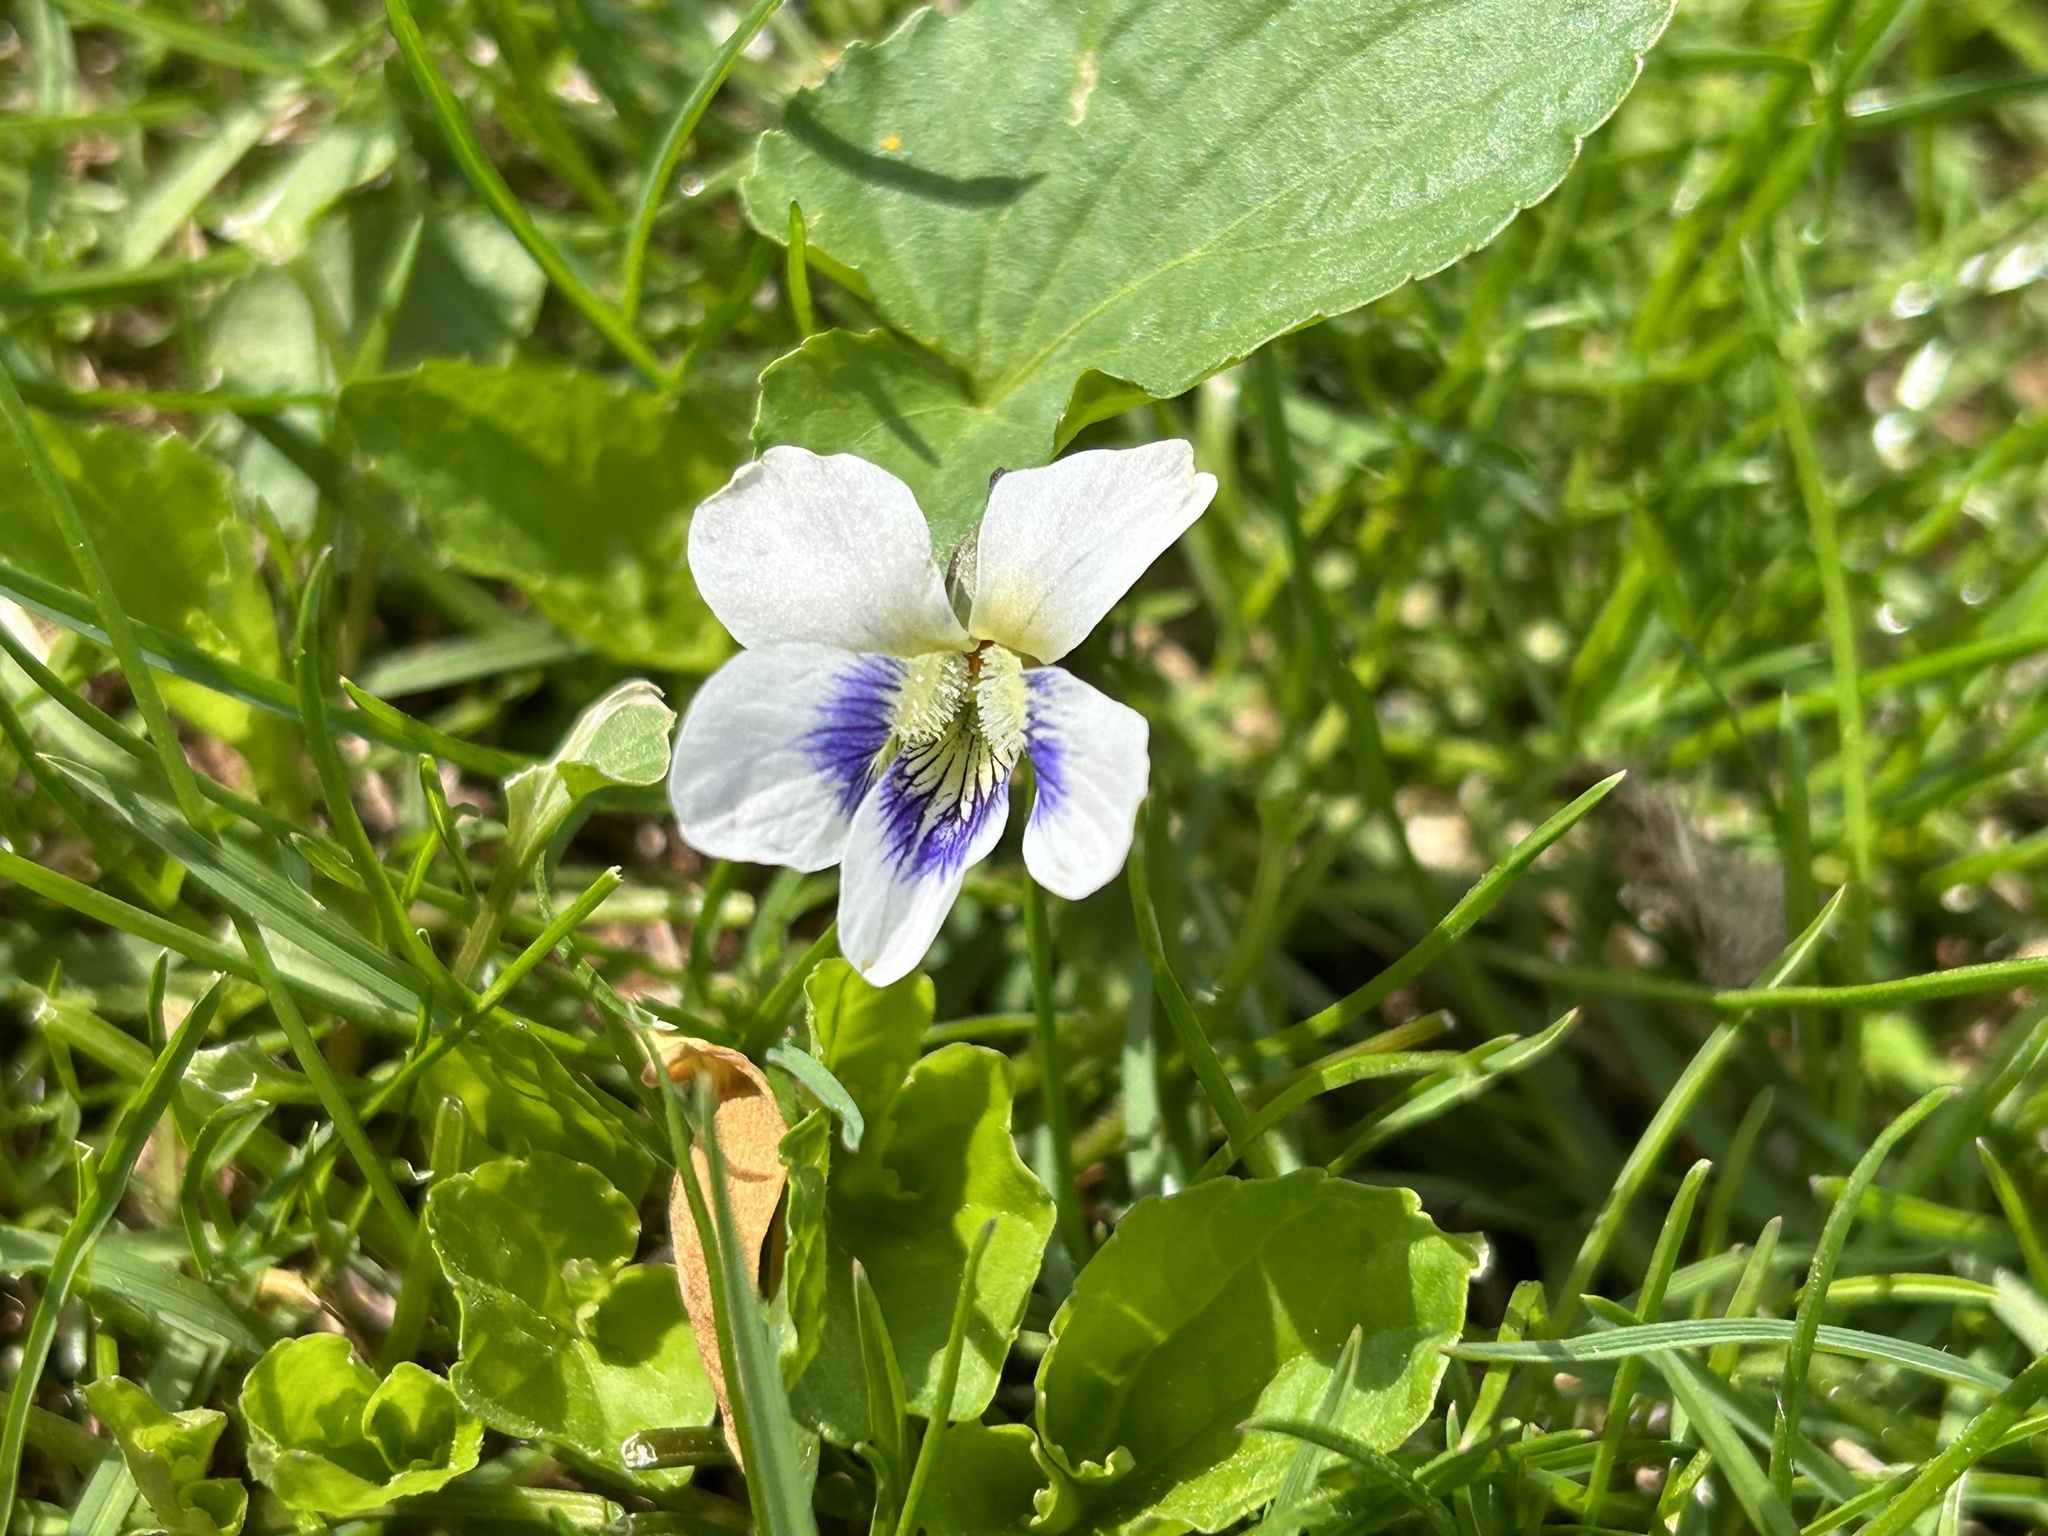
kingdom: Plantae
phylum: Tracheophyta
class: Magnoliopsida
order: Malpighiales
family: Violaceae
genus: Viola
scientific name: Viola sororia
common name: Dooryard violet
